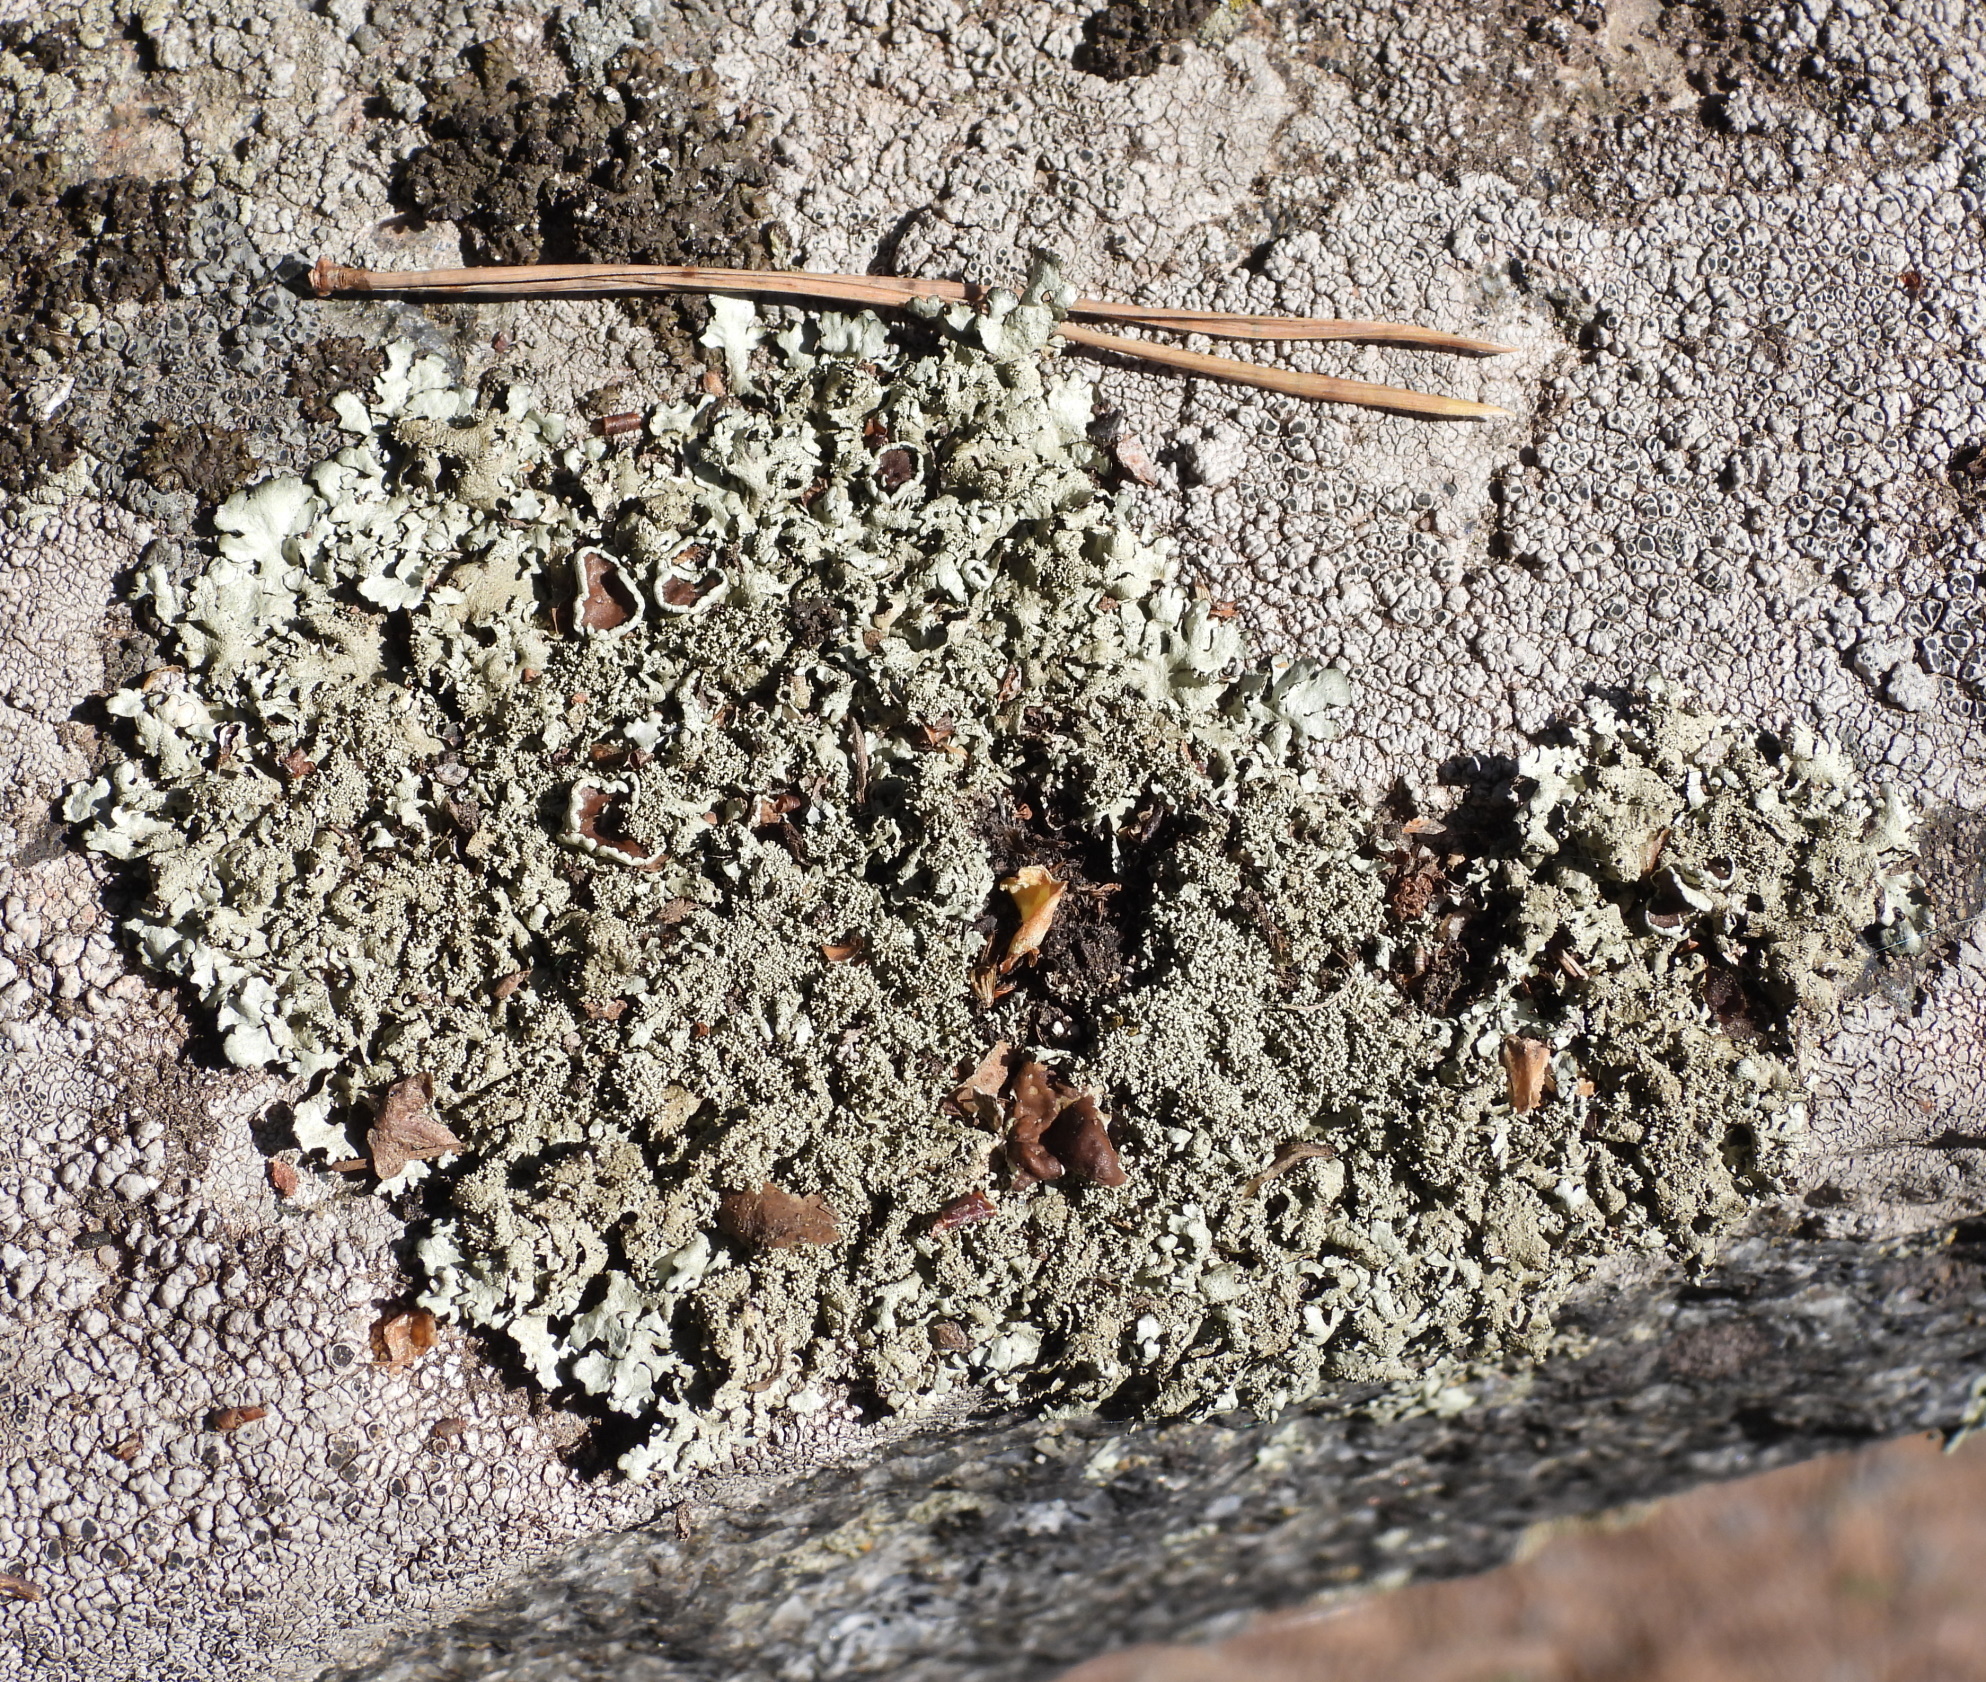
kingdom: Fungi
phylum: Ascomycota
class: Lecanoromycetes
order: Lecanorales
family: Parmeliaceae
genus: Xanthoparmelia
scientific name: Xanthoparmelia conspersa
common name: Peppered rock shield
